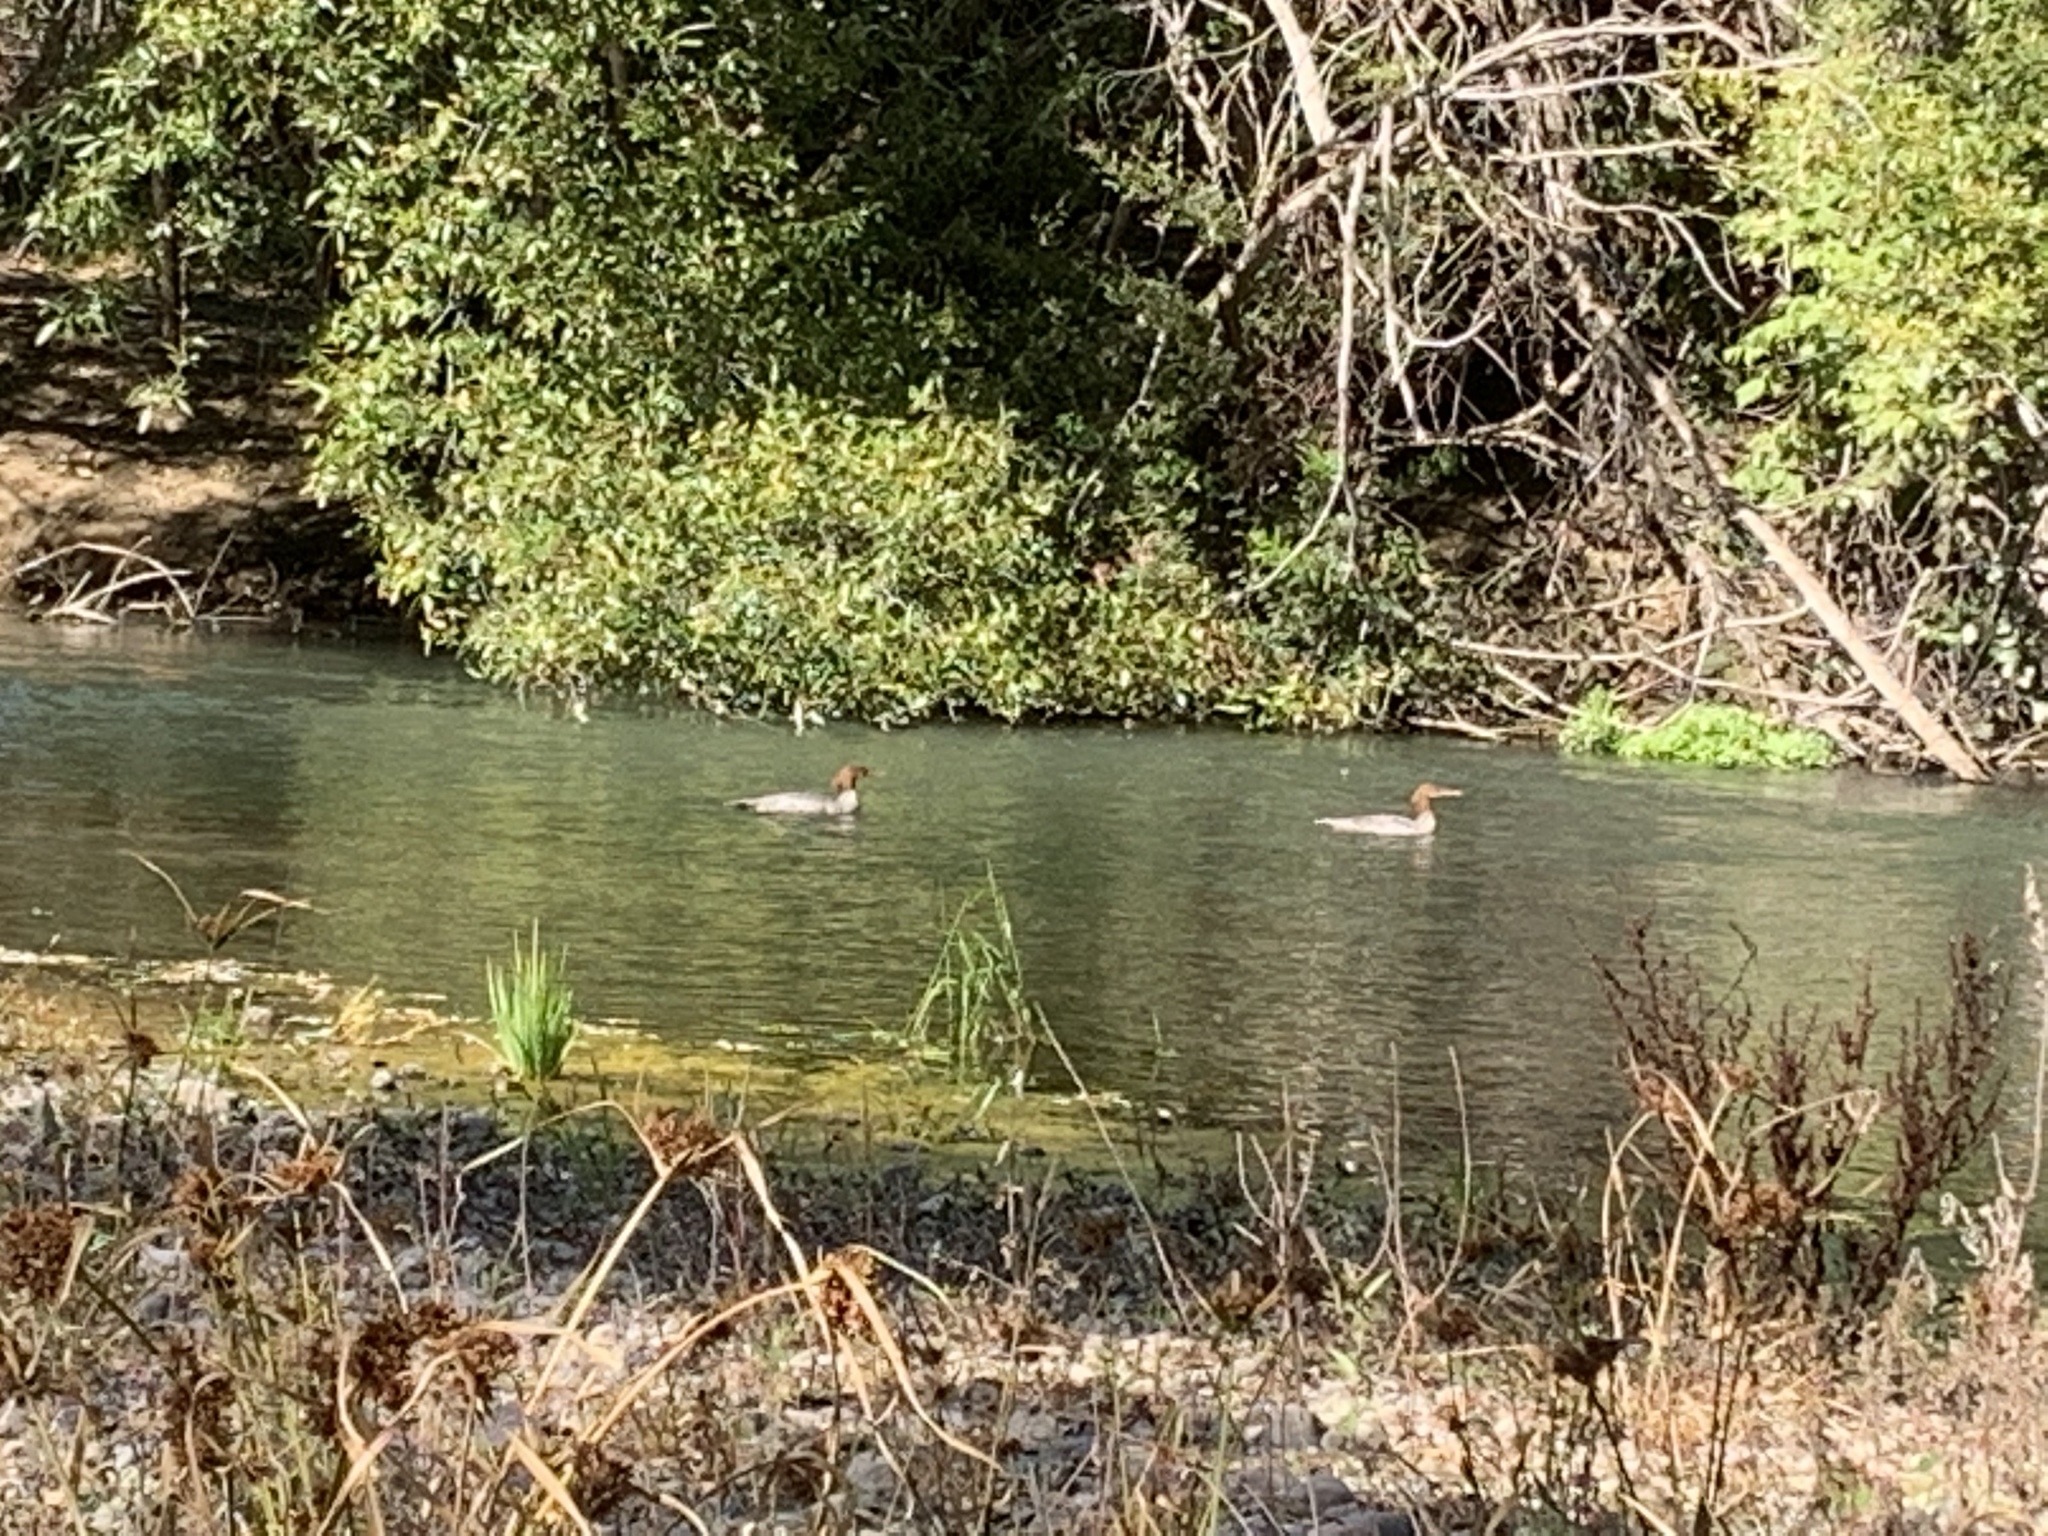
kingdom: Animalia
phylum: Chordata
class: Aves
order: Anseriformes
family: Anatidae
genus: Mergus
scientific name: Mergus merganser
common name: Common merganser
